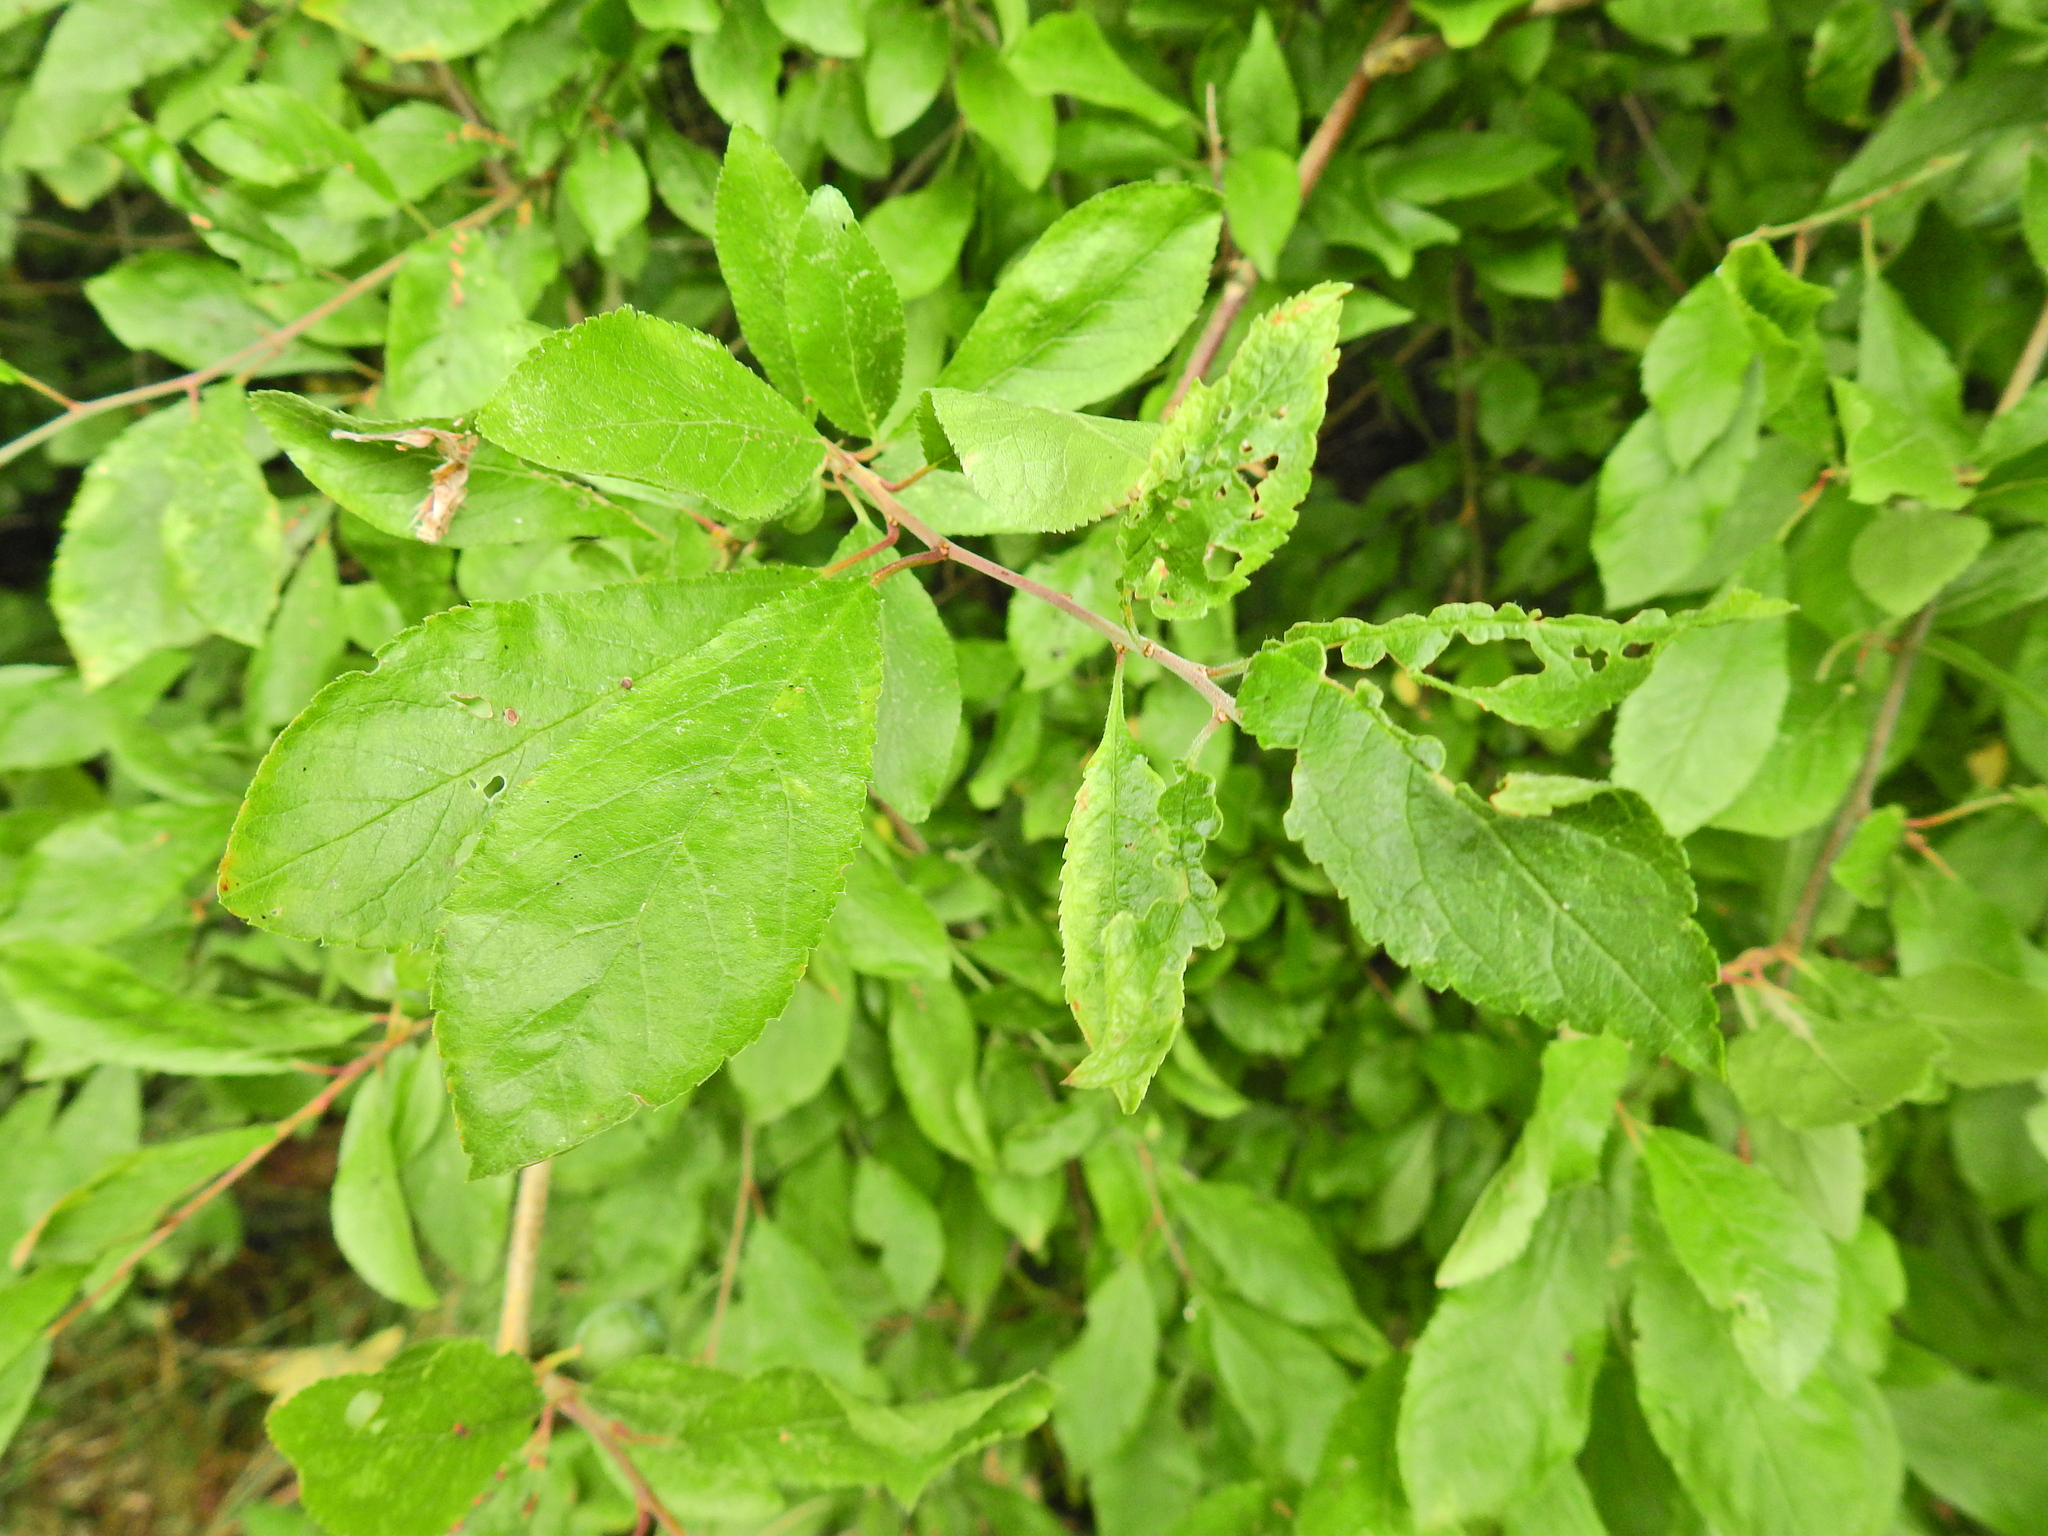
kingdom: Plantae
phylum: Tracheophyta
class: Magnoliopsida
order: Rosales
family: Rosaceae
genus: Prunus
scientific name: Prunus spinosa
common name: Blackthorn
